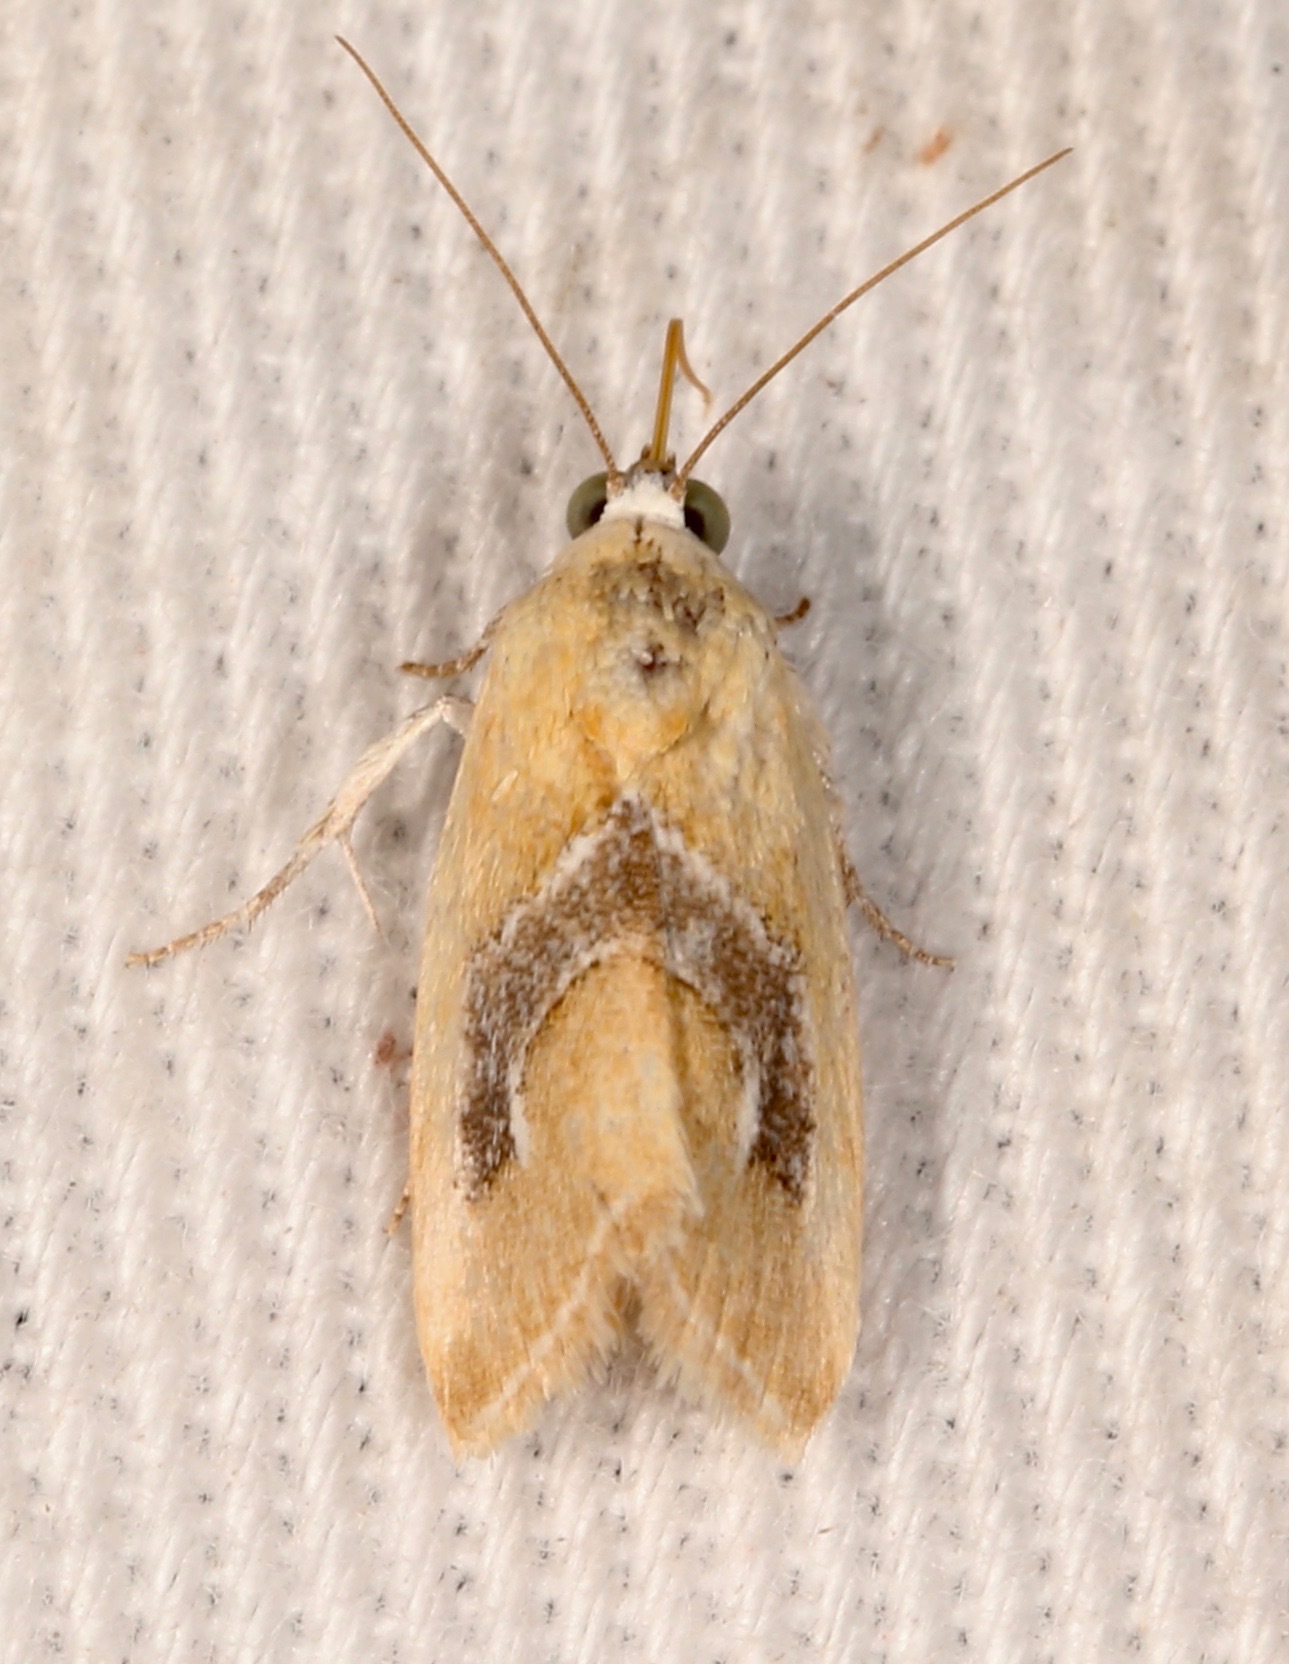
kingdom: Animalia
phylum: Arthropoda
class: Insecta
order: Lepidoptera
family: Noctuidae
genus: Ponometia
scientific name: Ponometia venustula
